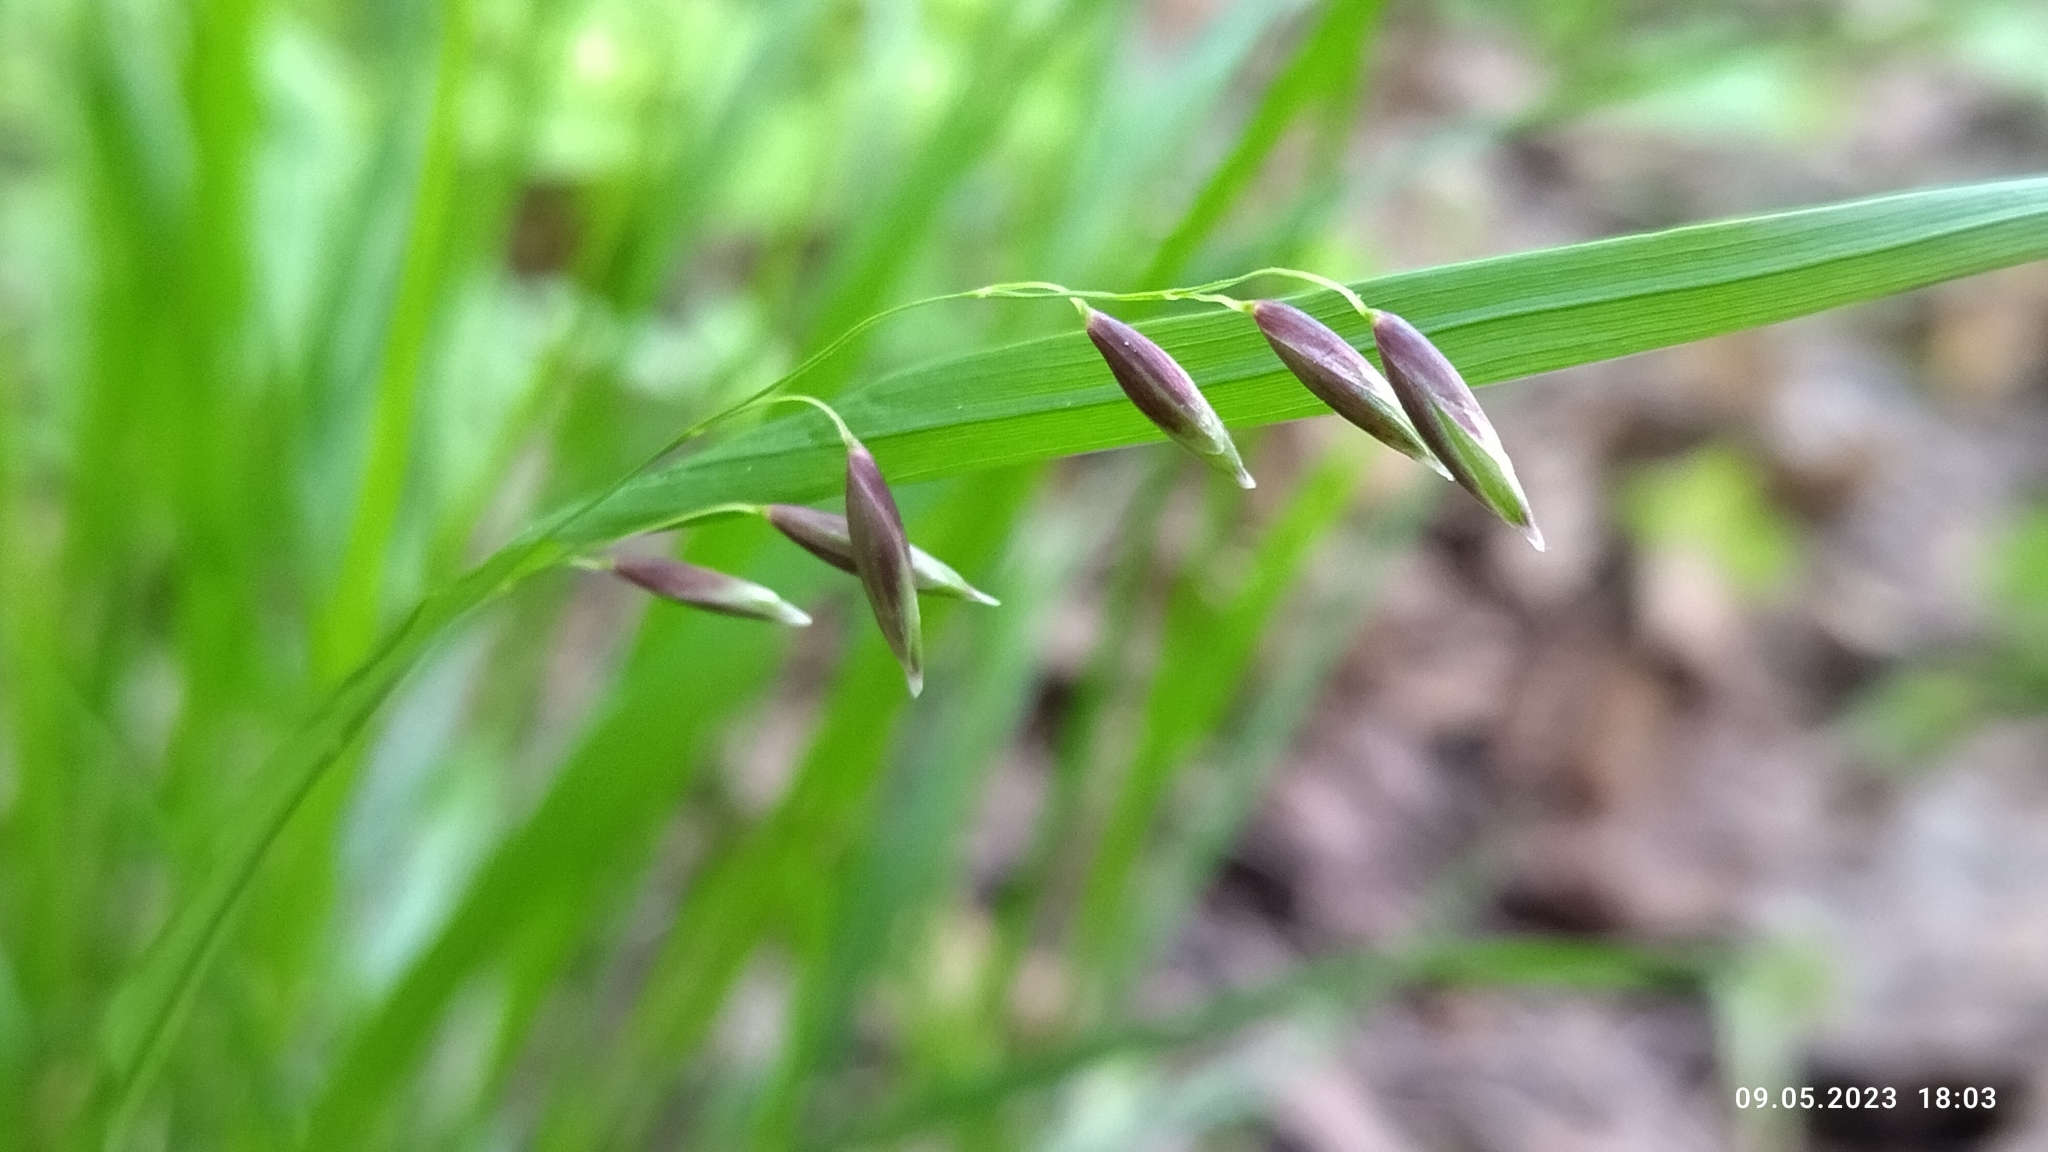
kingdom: Plantae
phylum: Tracheophyta
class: Liliopsida
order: Poales
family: Poaceae
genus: Melica
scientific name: Melica nutans
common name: Mountain melick
